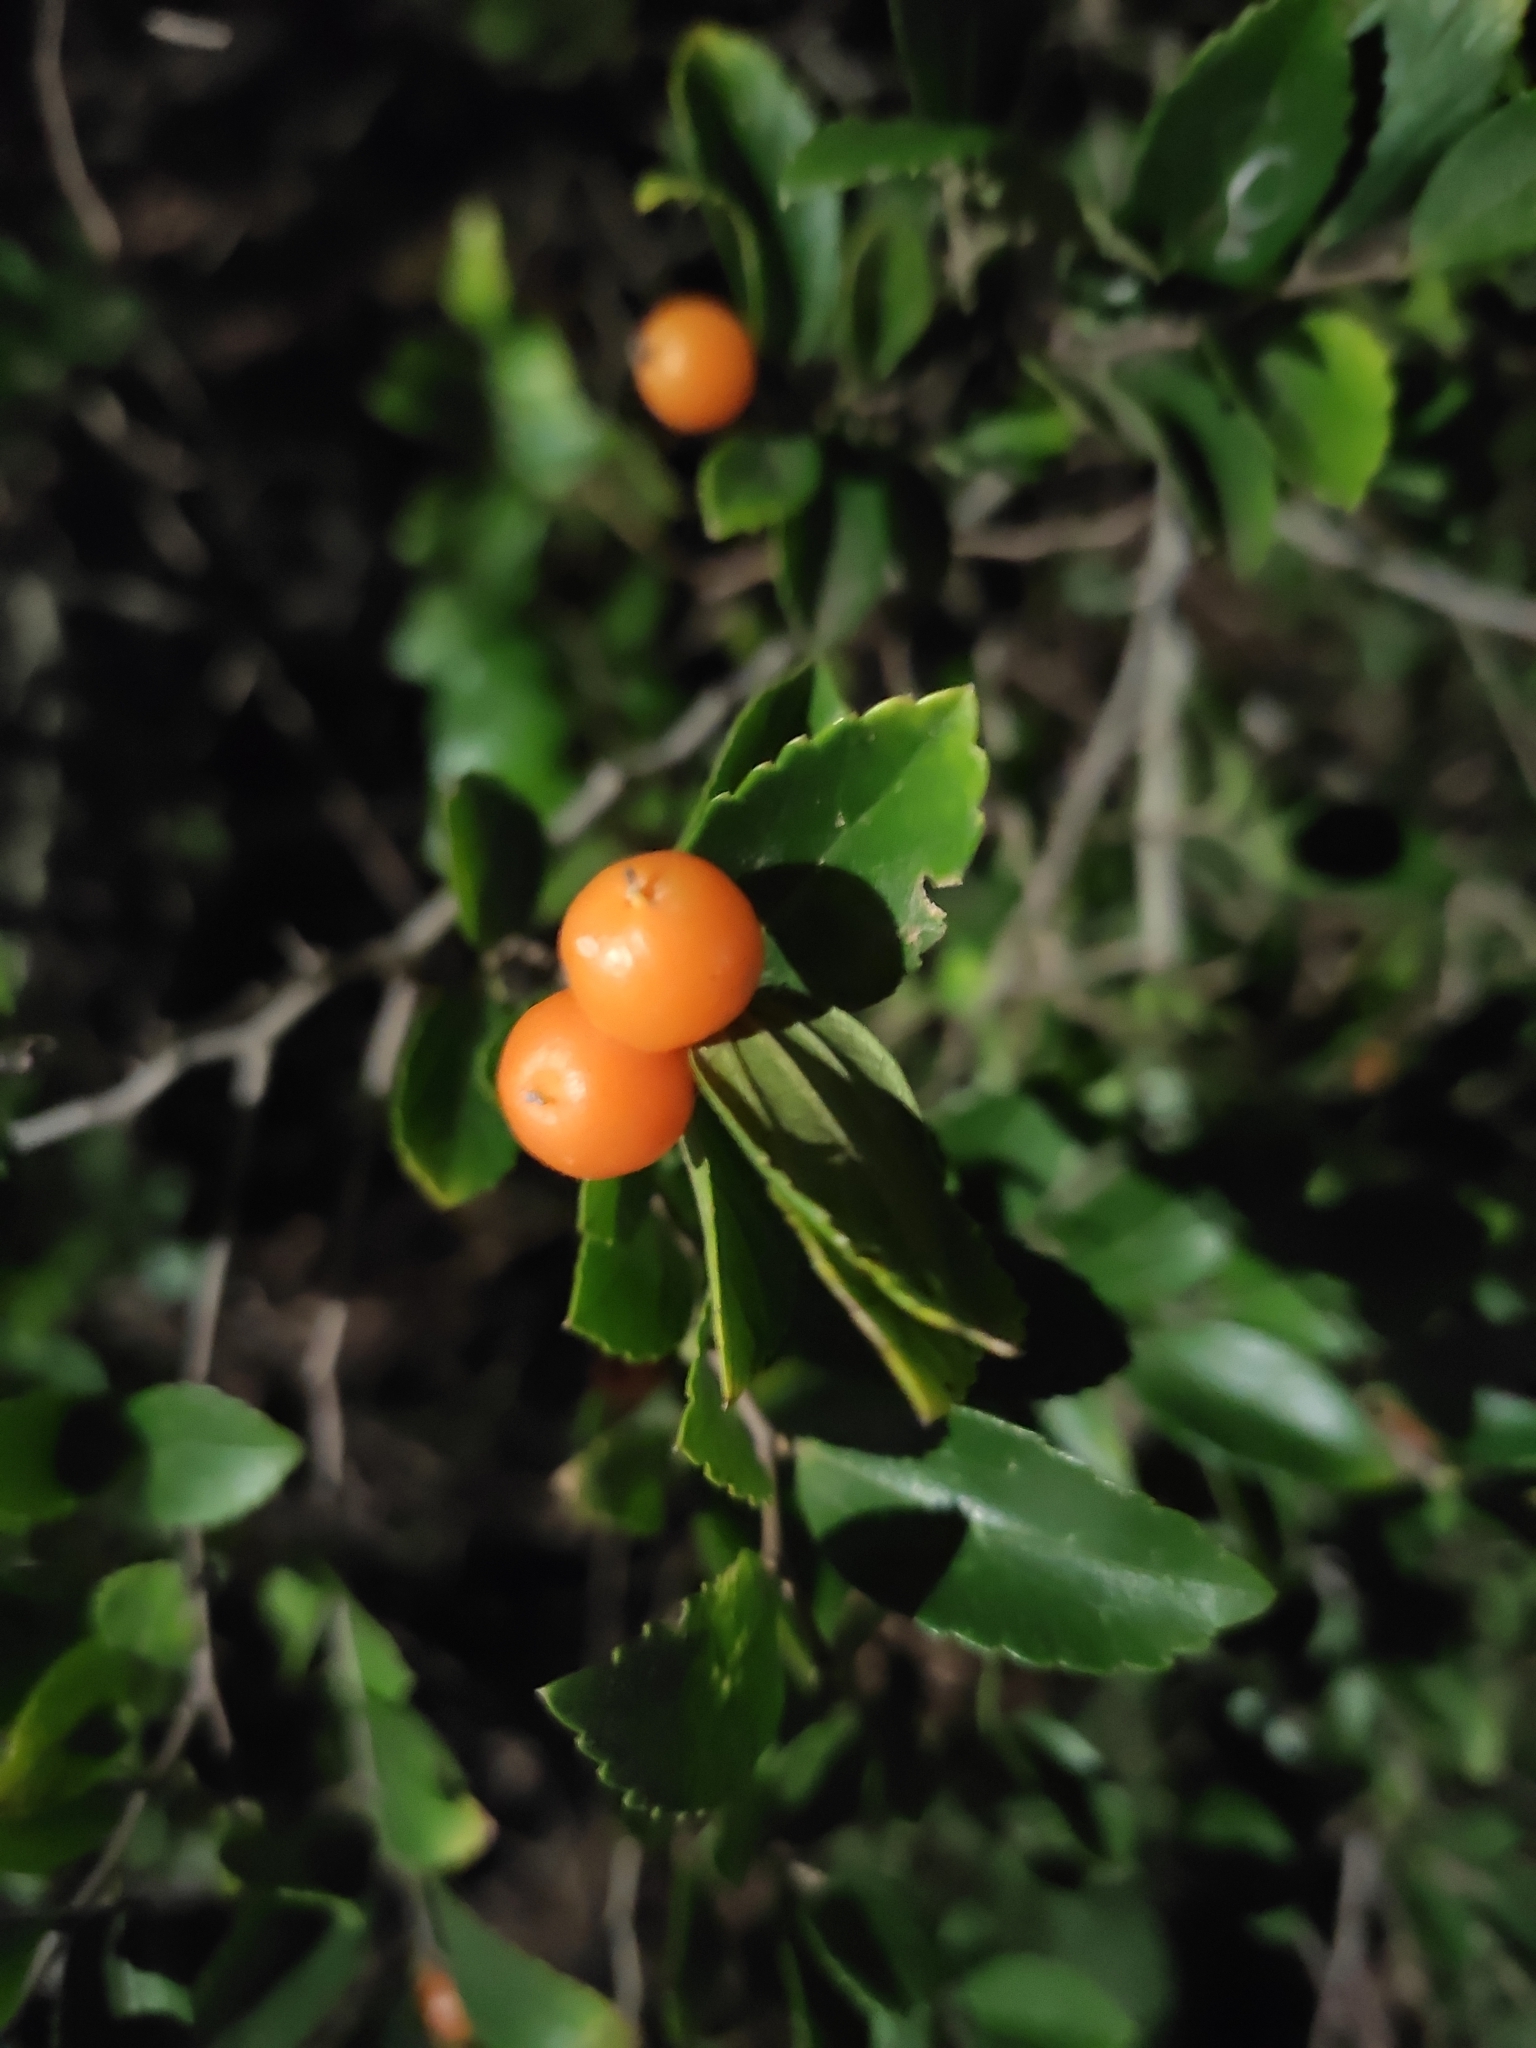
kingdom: Plantae
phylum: Tracheophyta
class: Magnoliopsida
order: Rosales
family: Cannabaceae
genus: Celtis
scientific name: Celtis tala
